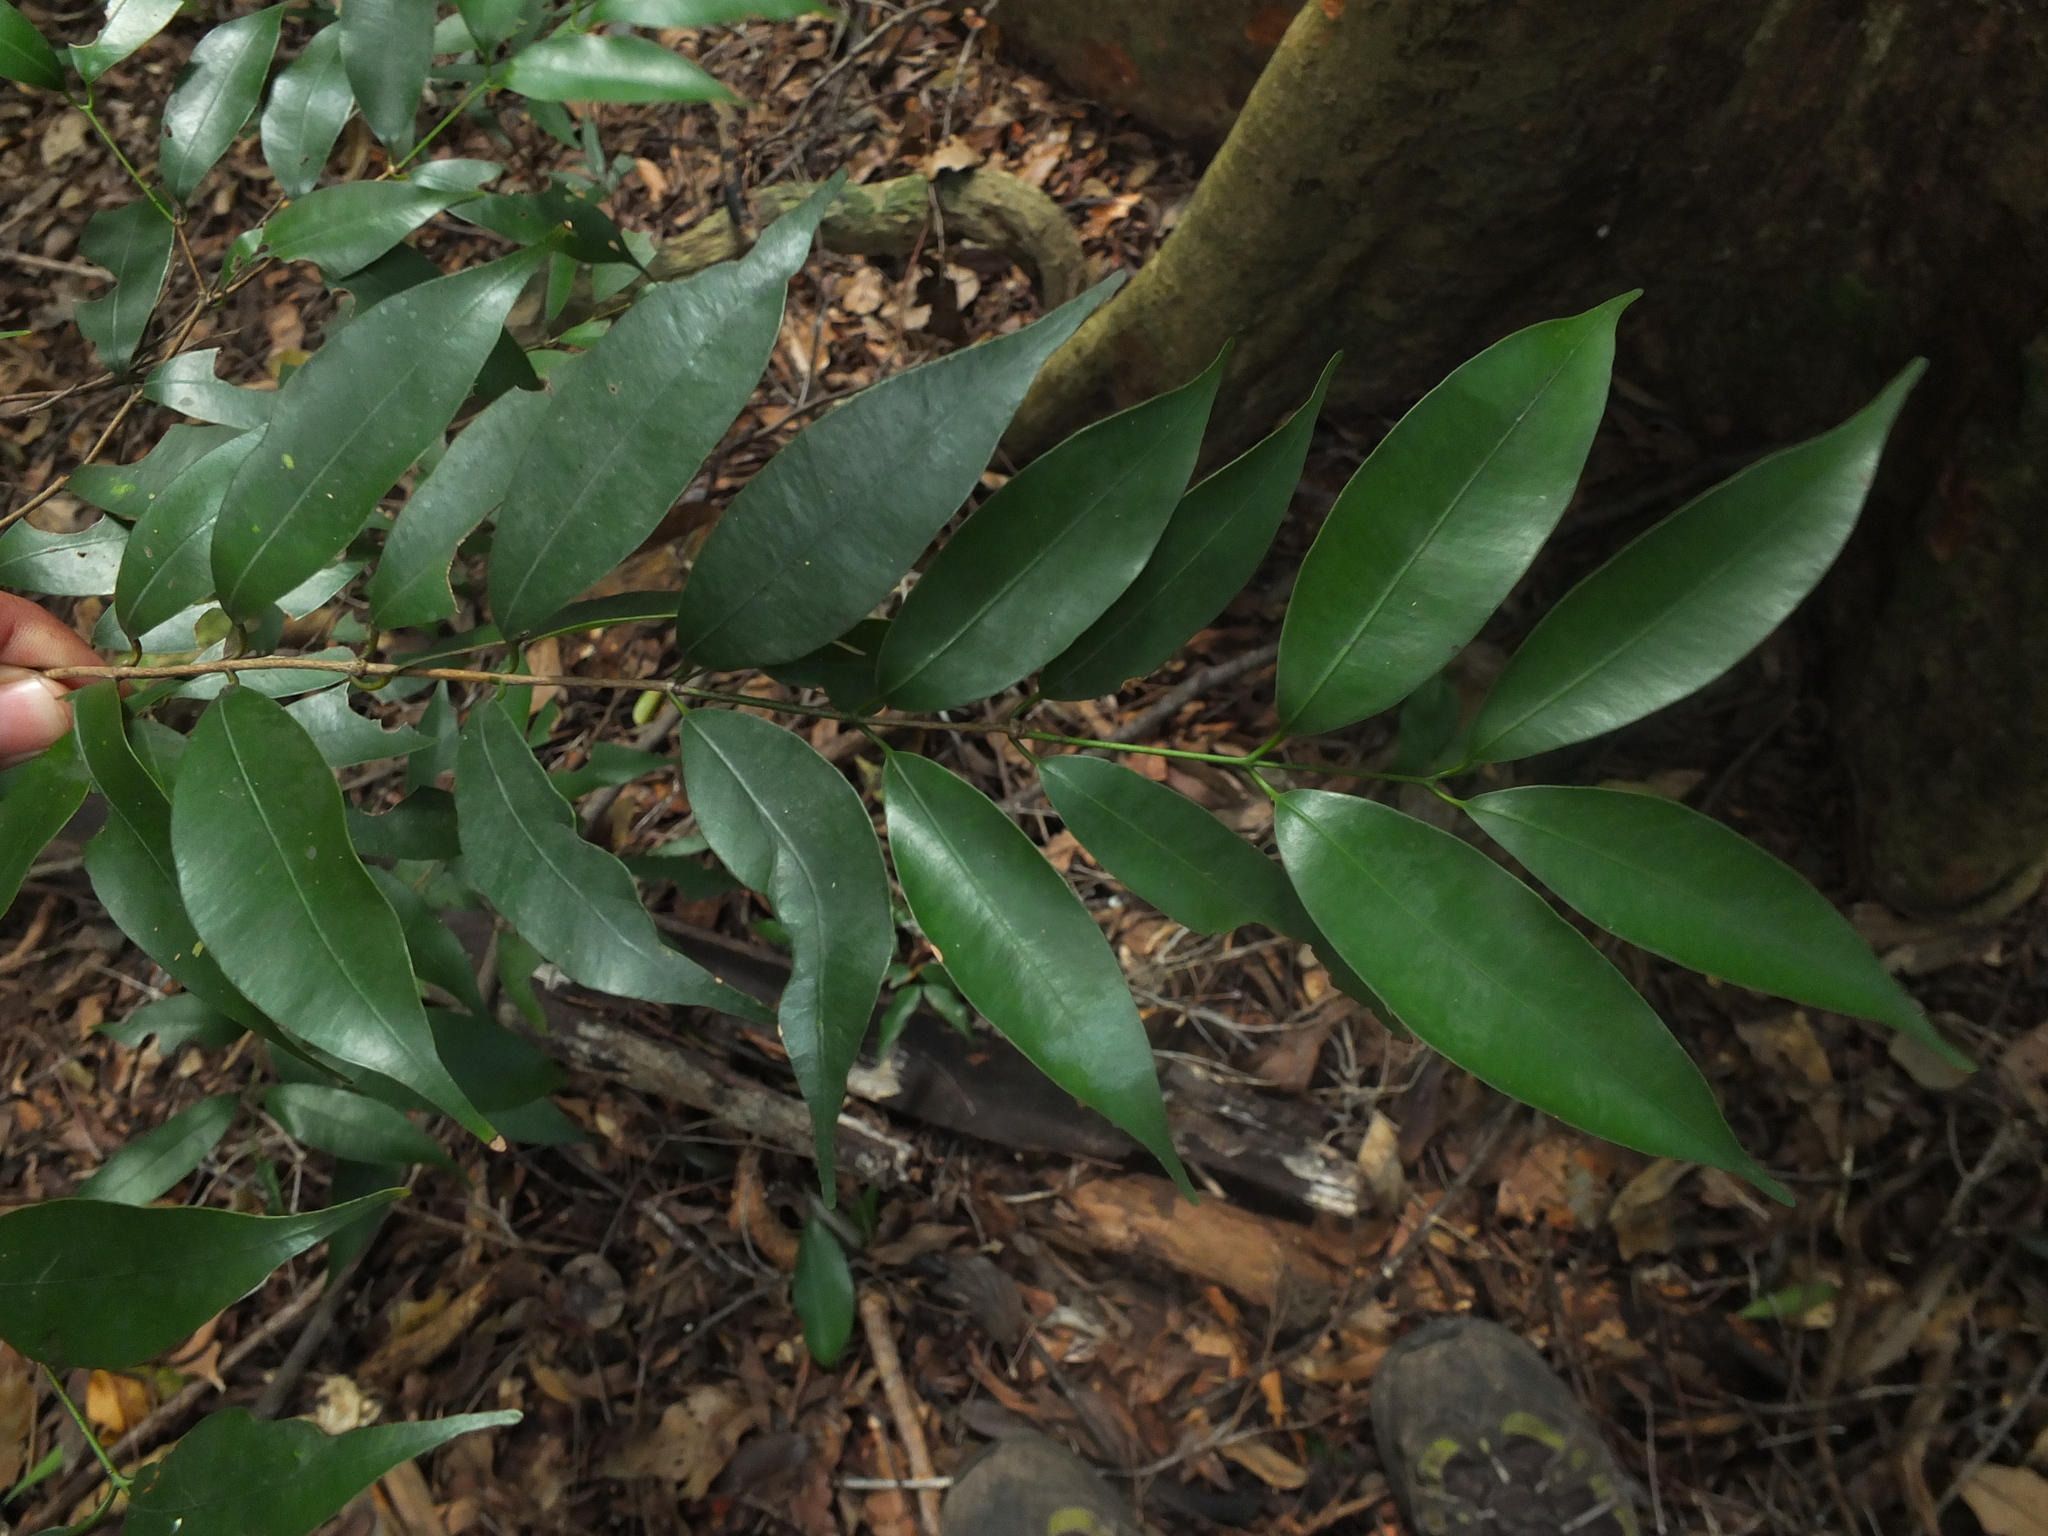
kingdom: Plantae
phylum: Tracheophyta
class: Magnoliopsida
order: Malpighiales
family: Calophyllaceae
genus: Mesua
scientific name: Mesua ferrea
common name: Mesua
